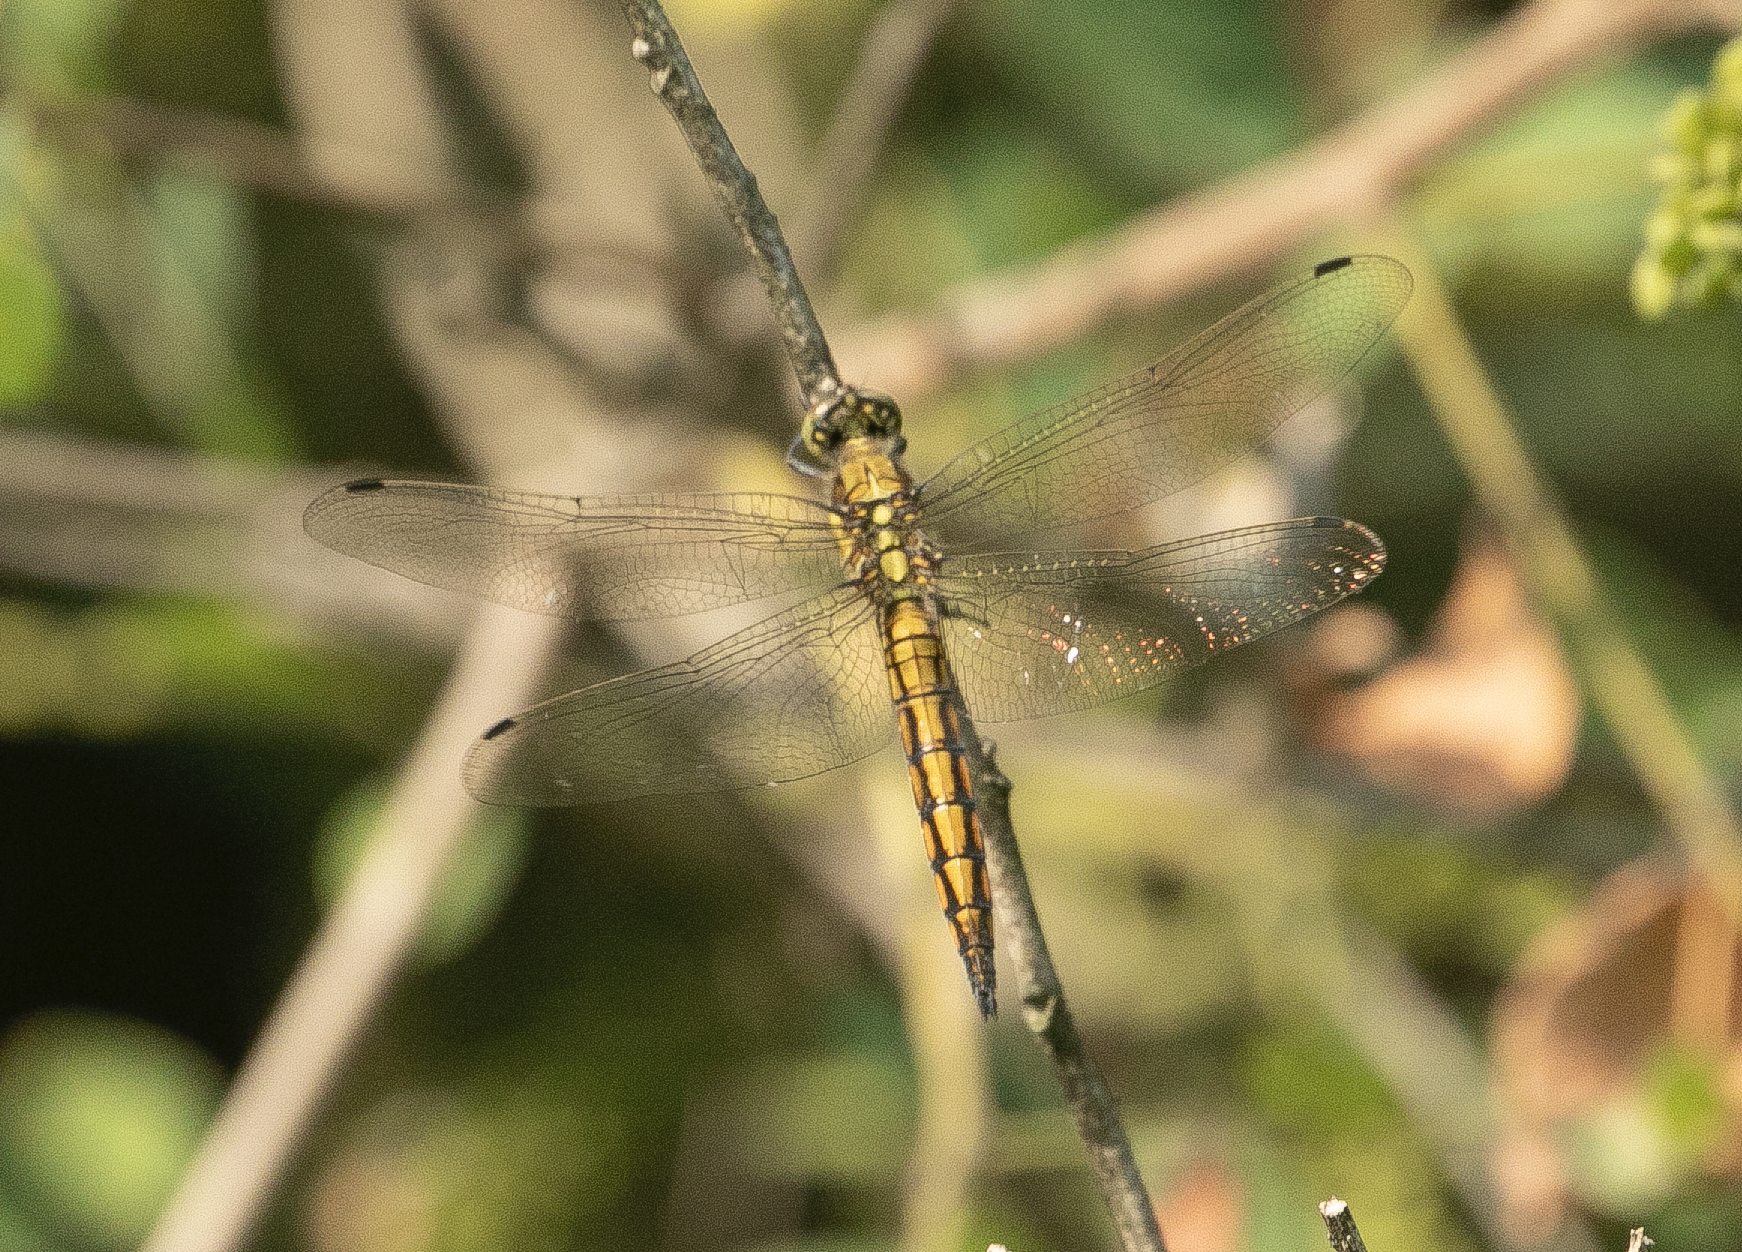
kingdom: Animalia
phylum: Arthropoda
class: Insecta
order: Odonata
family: Libellulidae
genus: Orthetrum
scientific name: Orthetrum cancellatum
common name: Black-tailed skimmer
